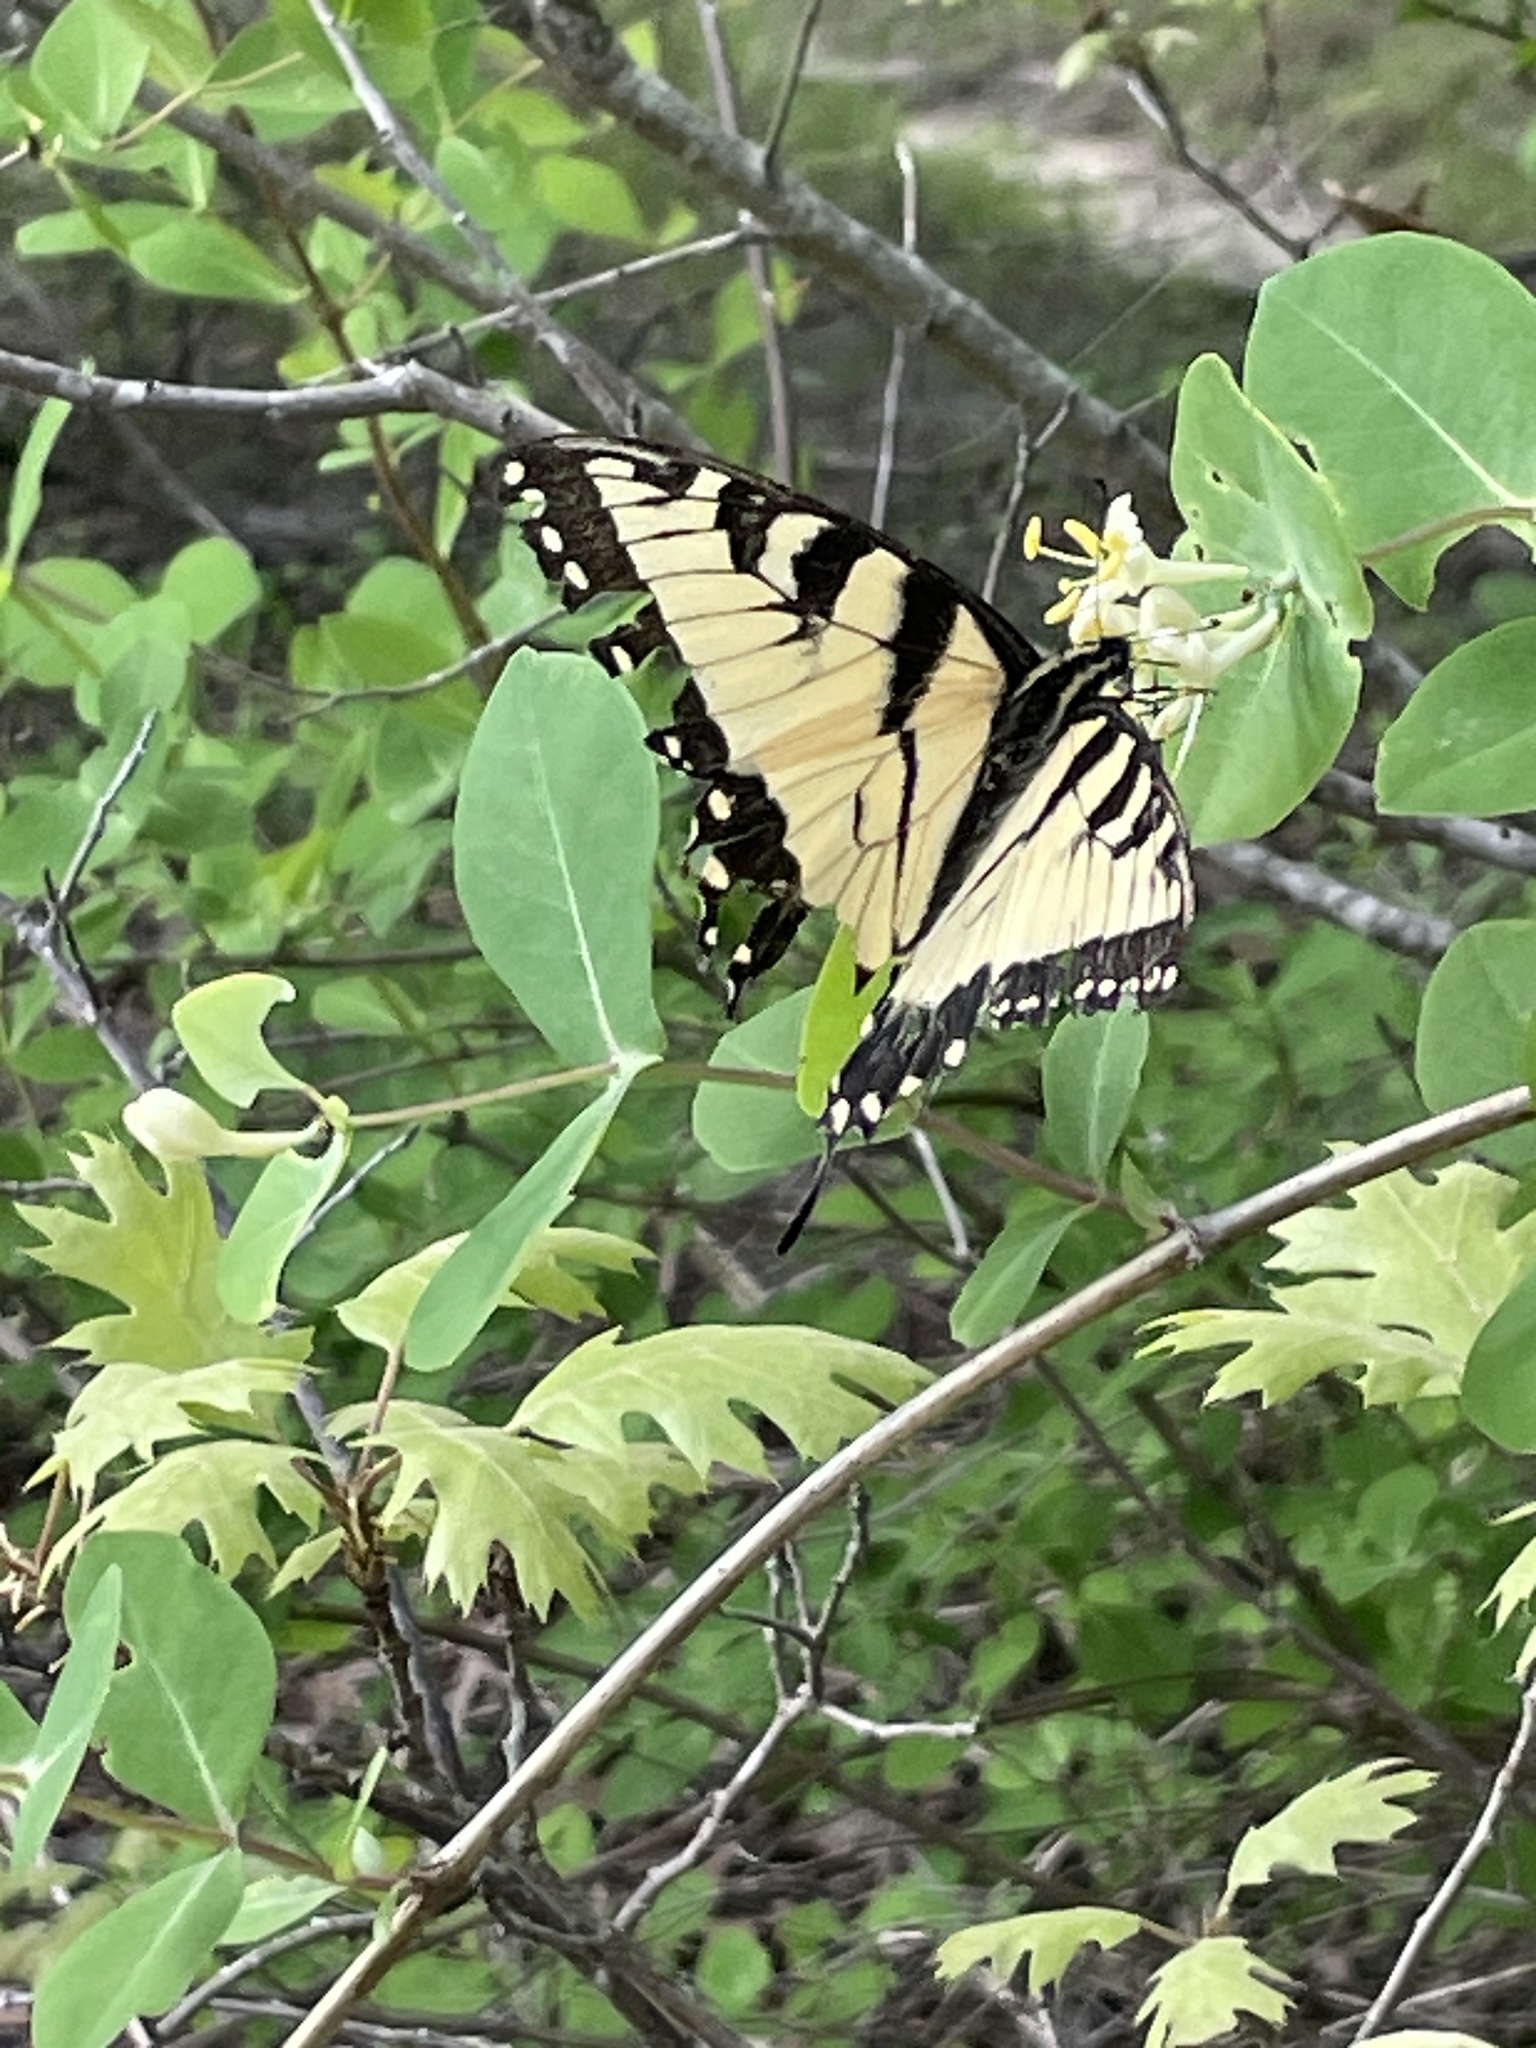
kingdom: Animalia
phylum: Arthropoda
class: Insecta
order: Lepidoptera
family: Papilionidae
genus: Papilio
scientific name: Papilio glaucus
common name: Tiger swallowtail
